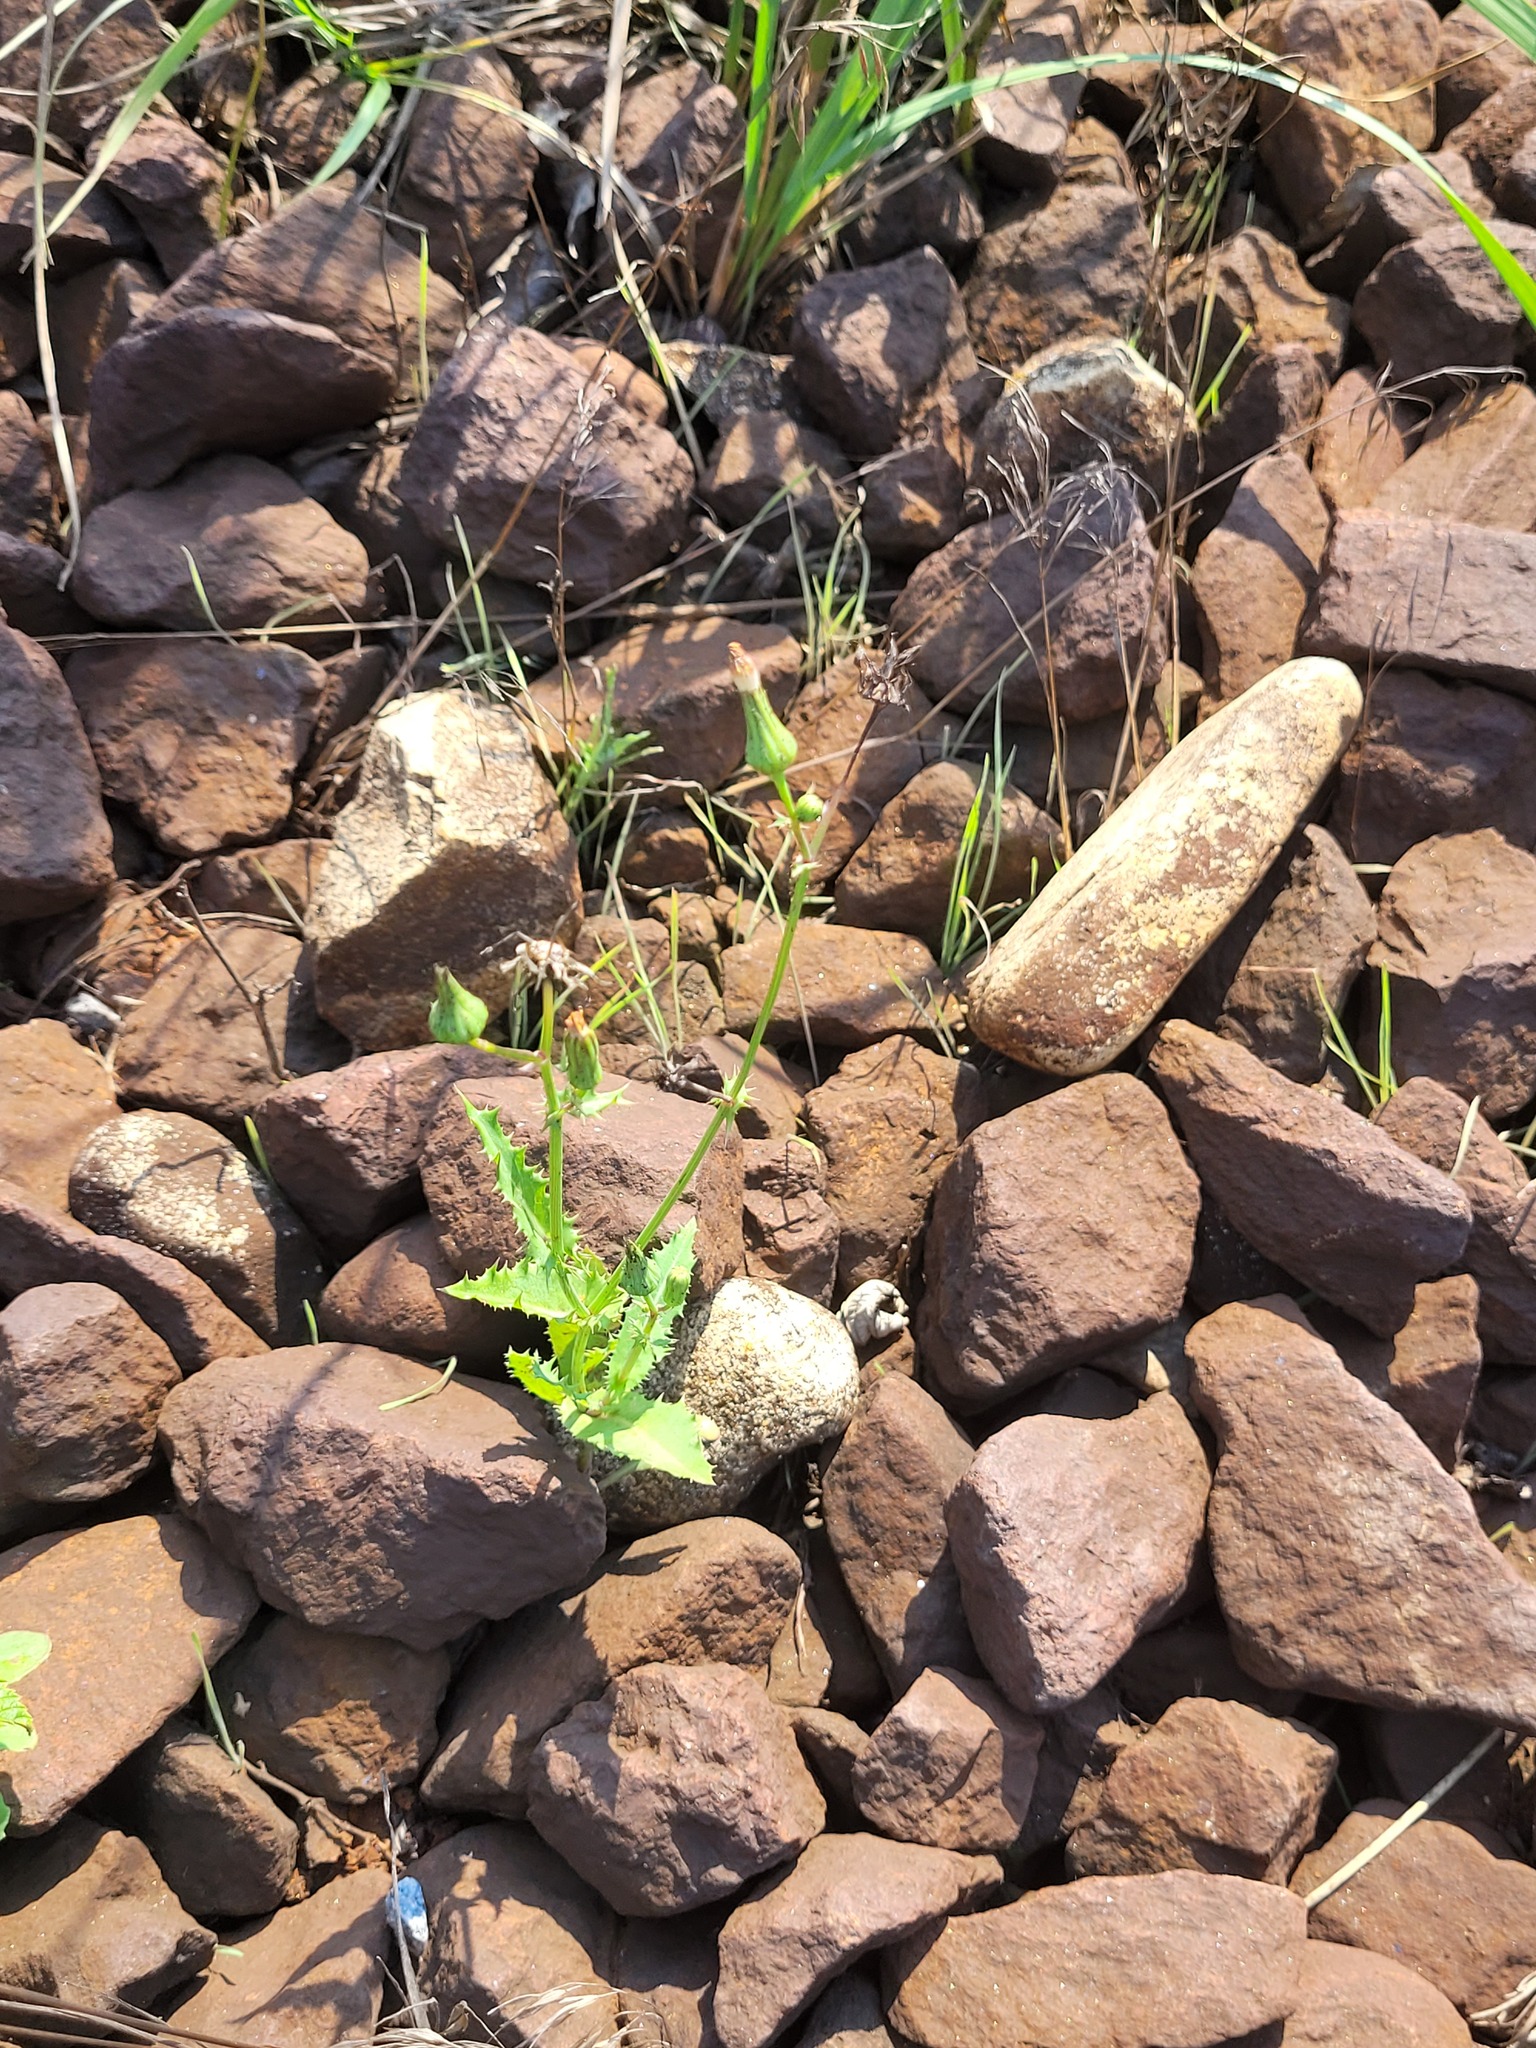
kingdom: Plantae
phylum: Tracheophyta
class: Magnoliopsida
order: Asterales
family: Asteraceae
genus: Sonchus
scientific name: Sonchus asper
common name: Prickly sow-thistle
